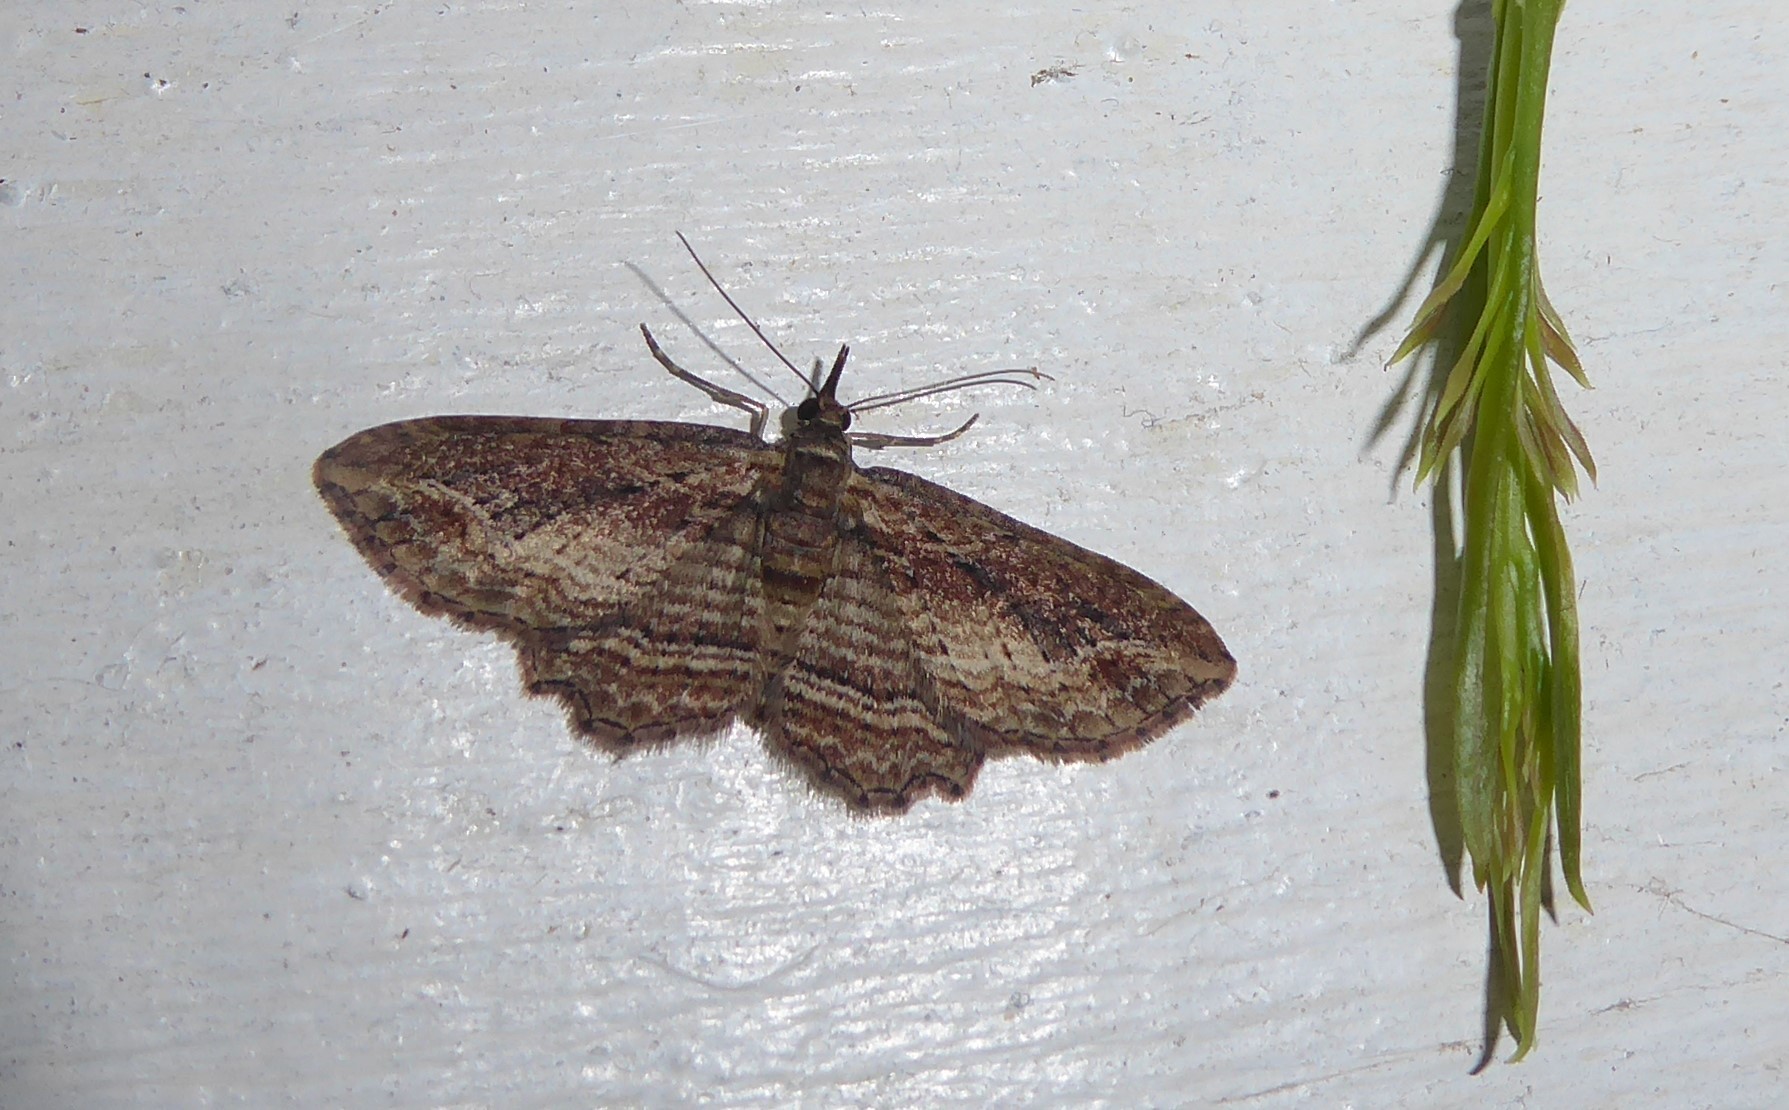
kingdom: Animalia
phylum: Arthropoda
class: Insecta
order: Lepidoptera
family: Geometridae
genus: Chloroclystis
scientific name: Chloroclystis filata
